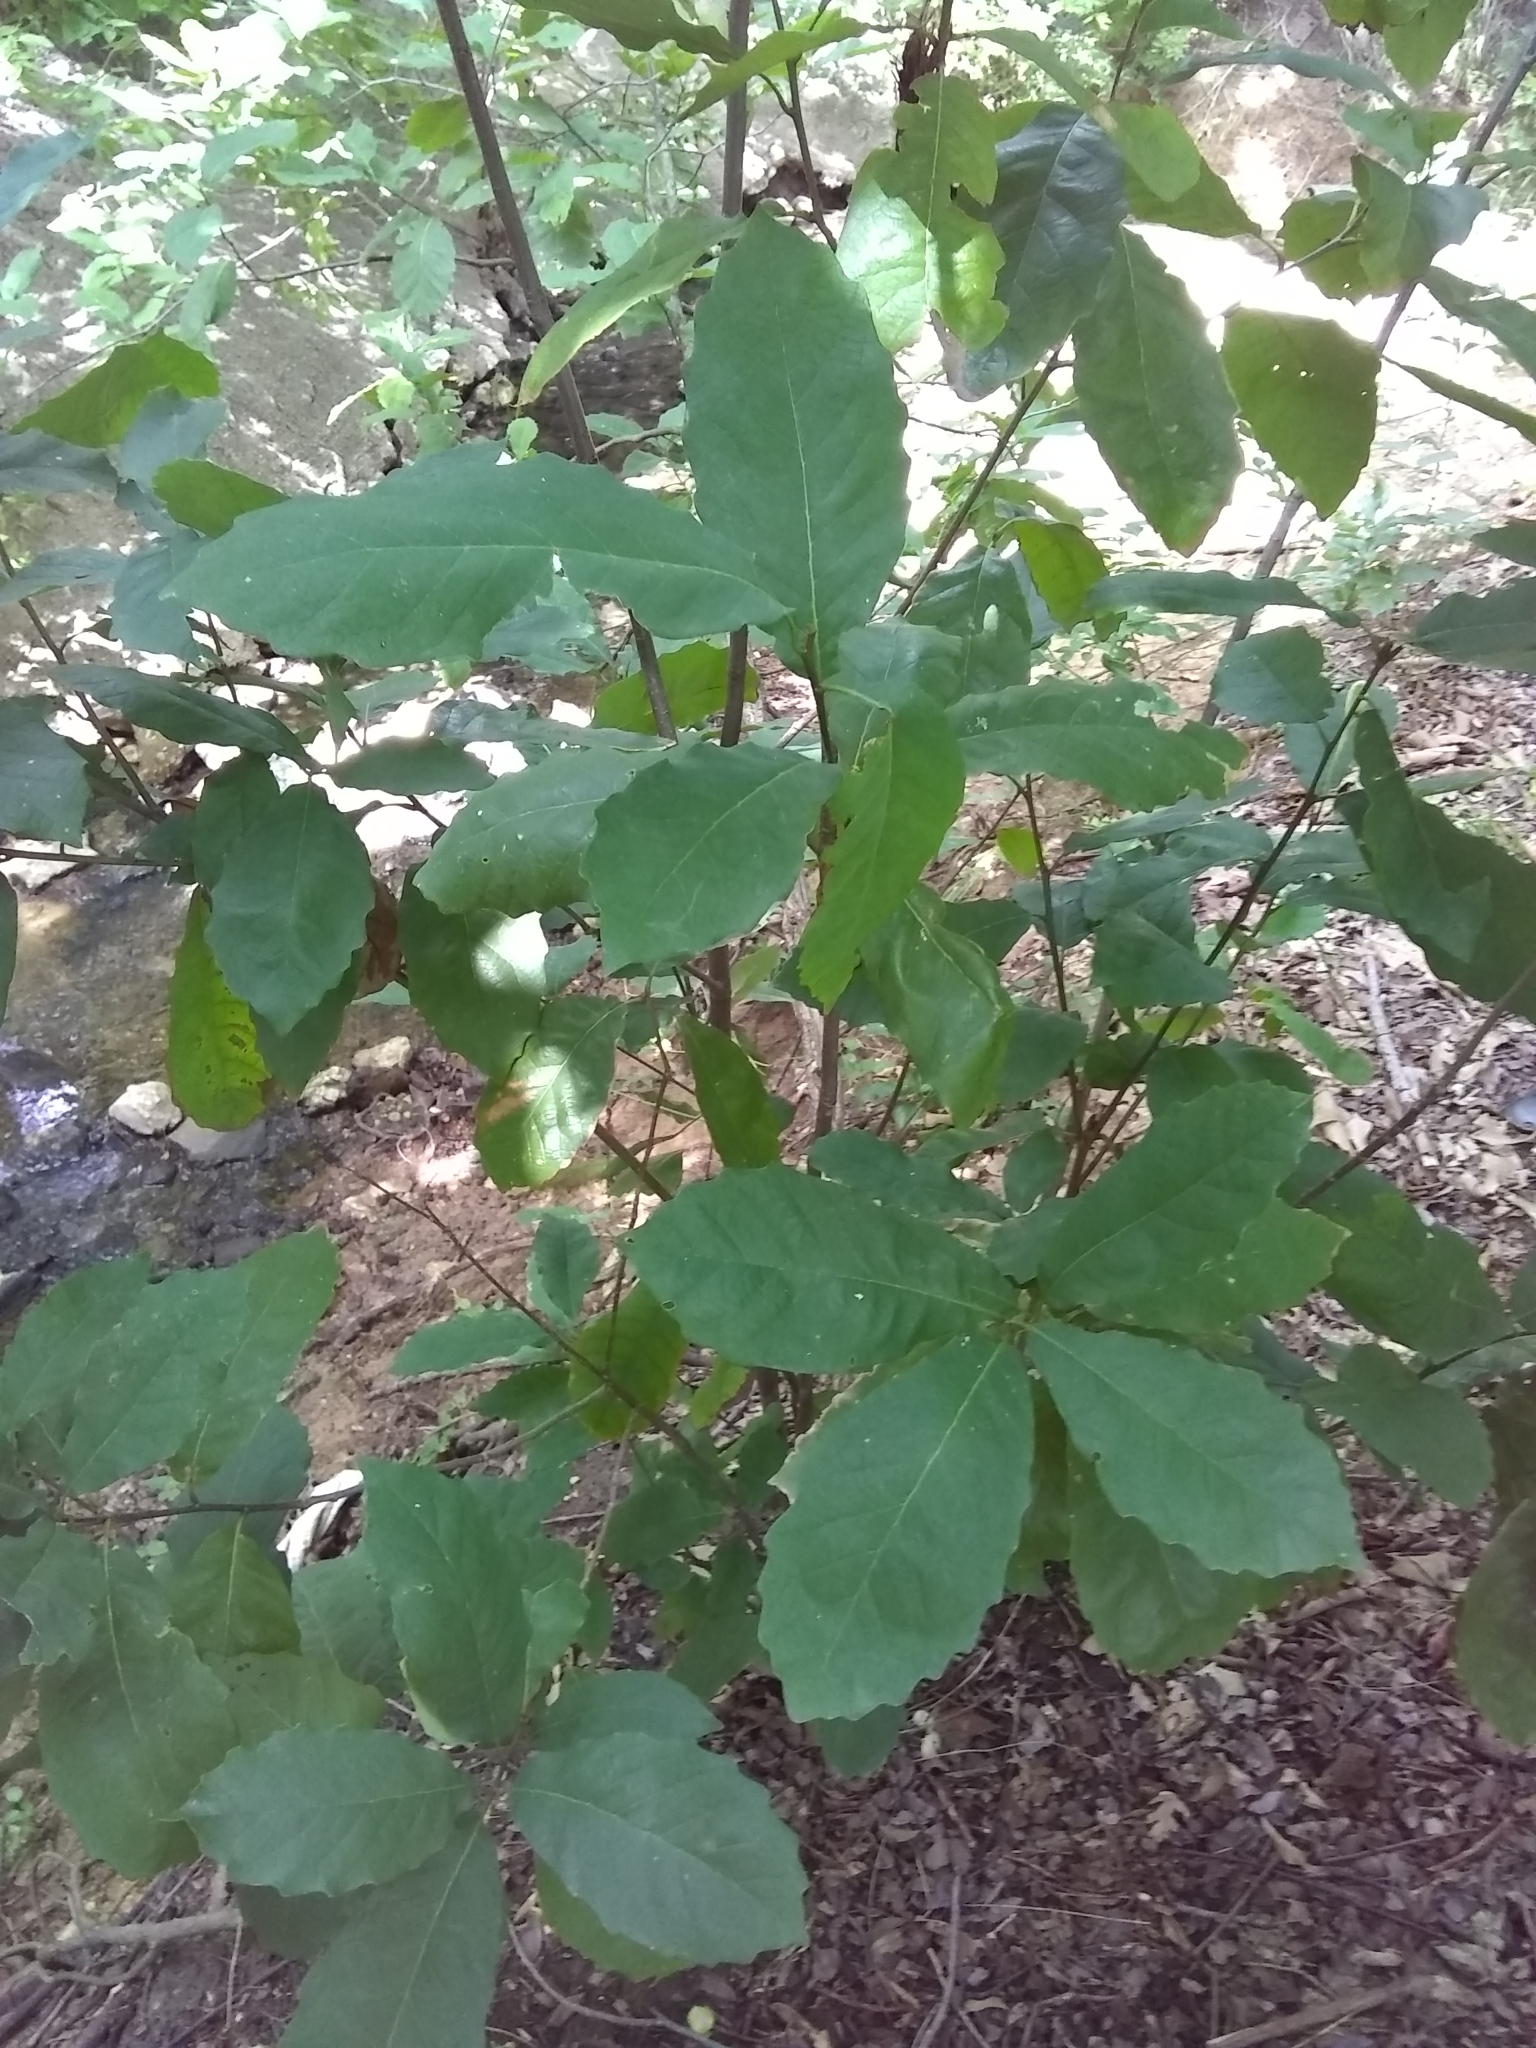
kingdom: Plantae
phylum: Tracheophyta
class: Magnoliopsida
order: Fagales
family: Fagaceae
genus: Quercus
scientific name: Quercus muehlenbergii
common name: Chinkapin oak
